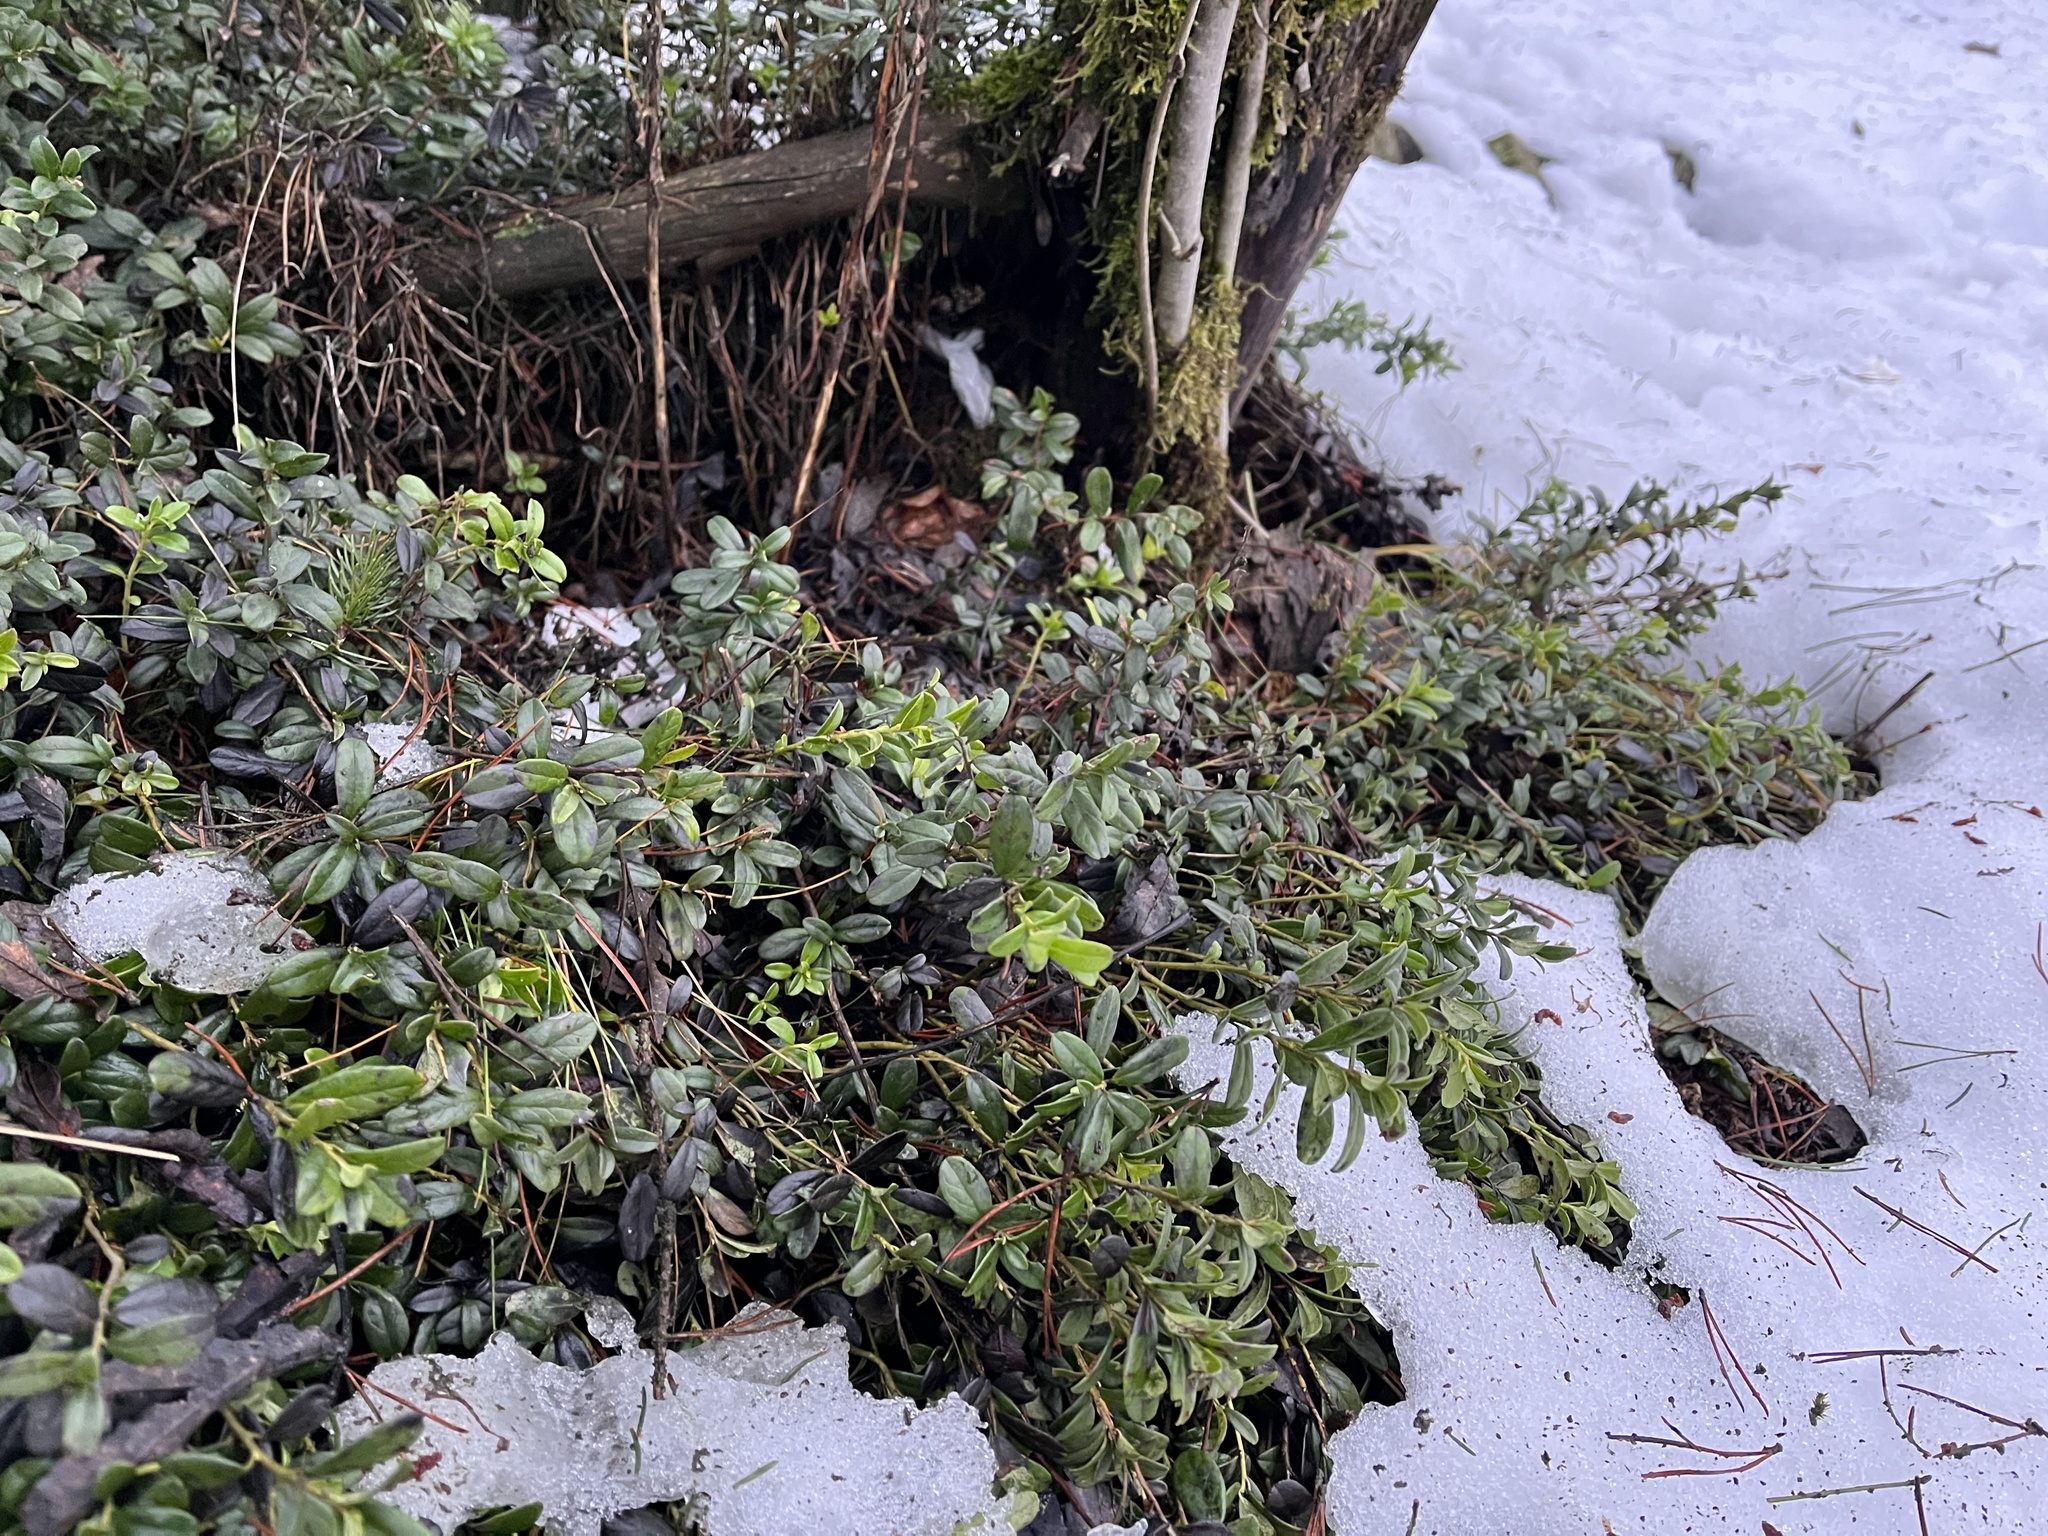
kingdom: Plantae
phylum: Tracheophyta
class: Magnoliopsida
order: Ericales
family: Ericaceae
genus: Vaccinium
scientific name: Vaccinium vitis-idaea
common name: Cowberry
